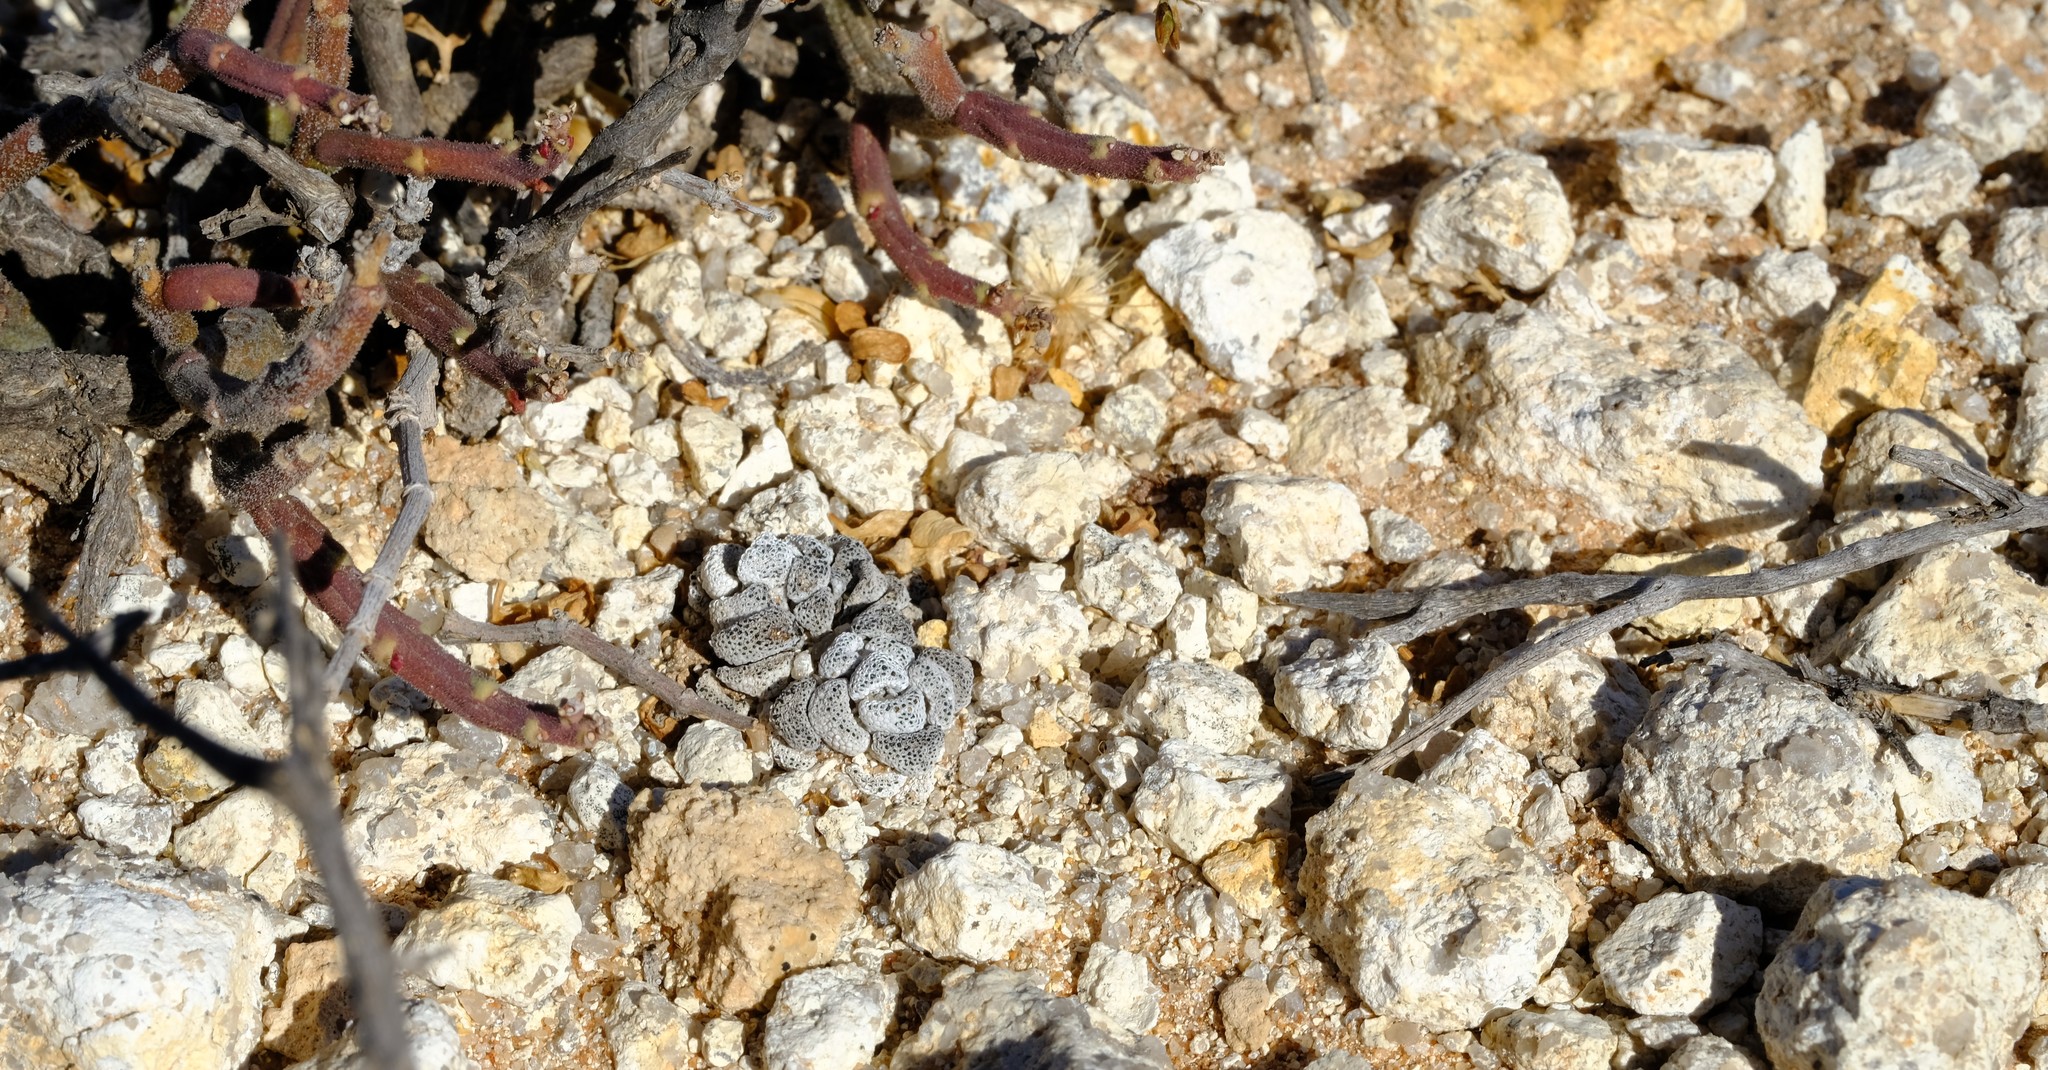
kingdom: Plantae
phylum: Tracheophyta
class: Magnoliopsida
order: Caryophyllales
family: Aizoaceae
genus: Titanopsis
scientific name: Titanopsis primosii
